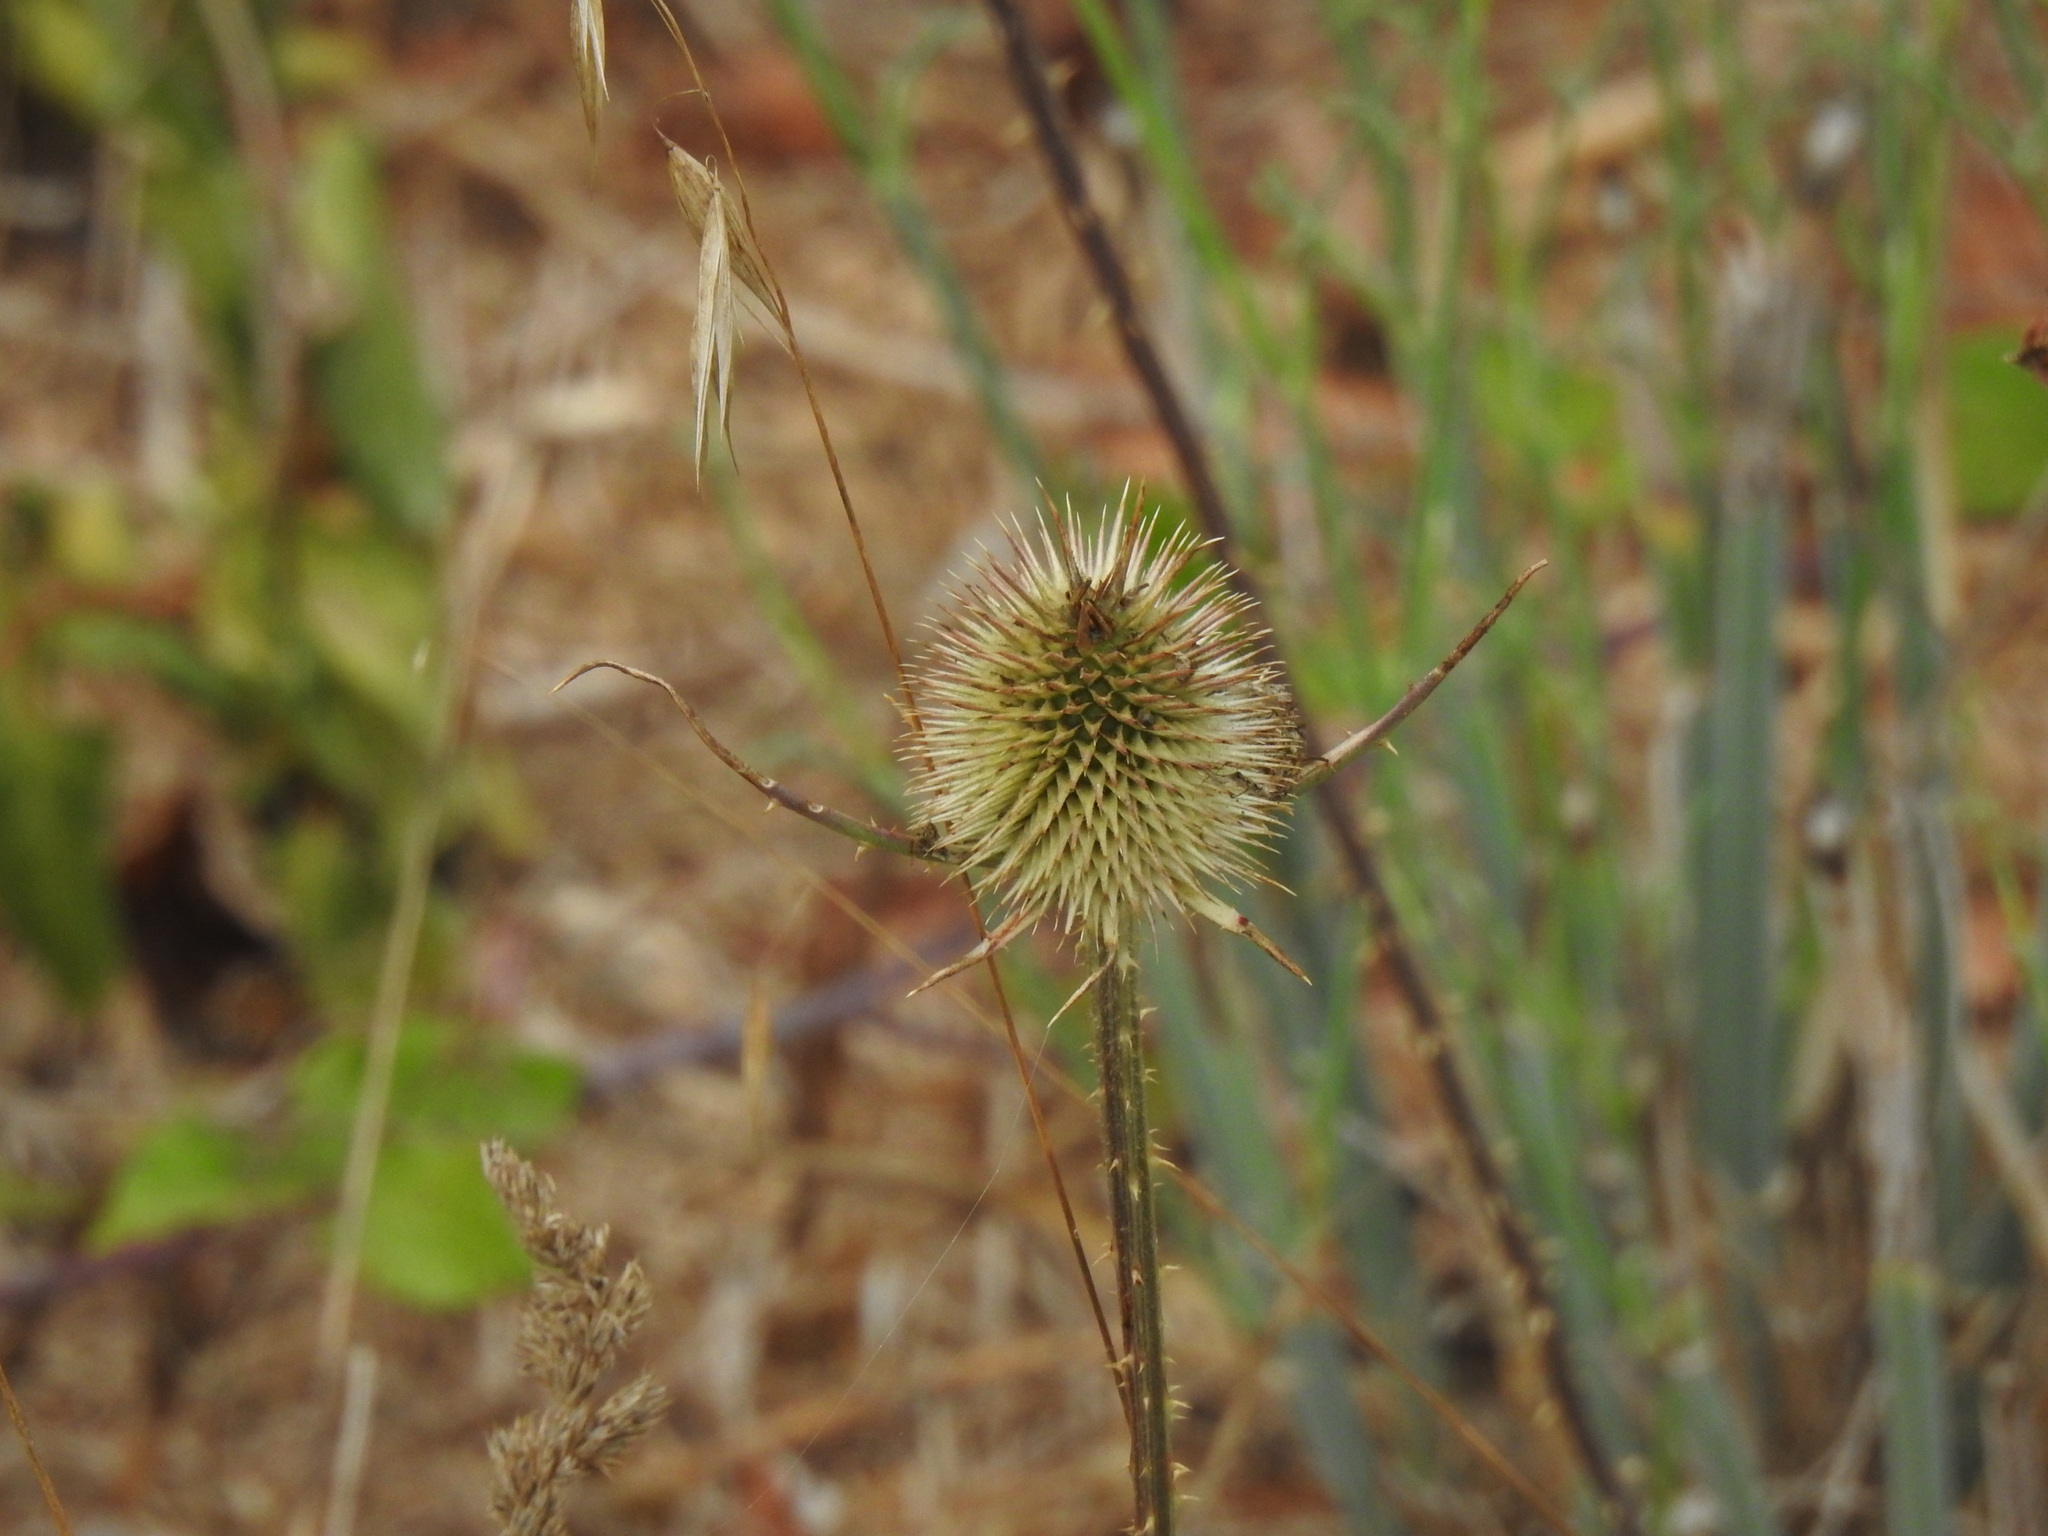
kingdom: Plantae
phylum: Tracheophyta
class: Magnoliopsida
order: Dipsacales
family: Caprifoliaceae
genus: Dipsacus
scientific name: Dipsacus comosus
